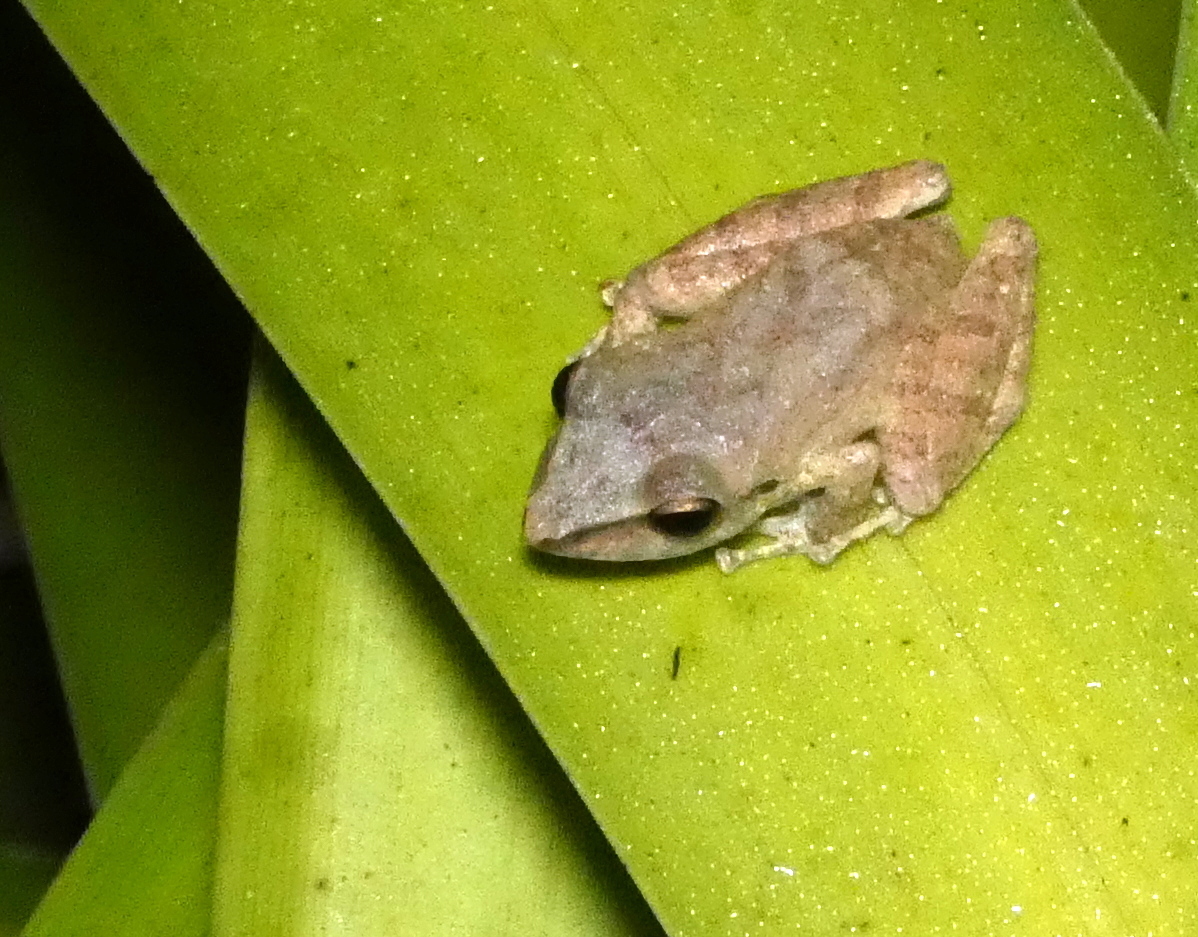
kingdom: Animalia
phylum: Chordata
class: Amphibia
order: Anura
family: Craugastoridae
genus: Pristimantis
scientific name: Pristimantis ramagii
